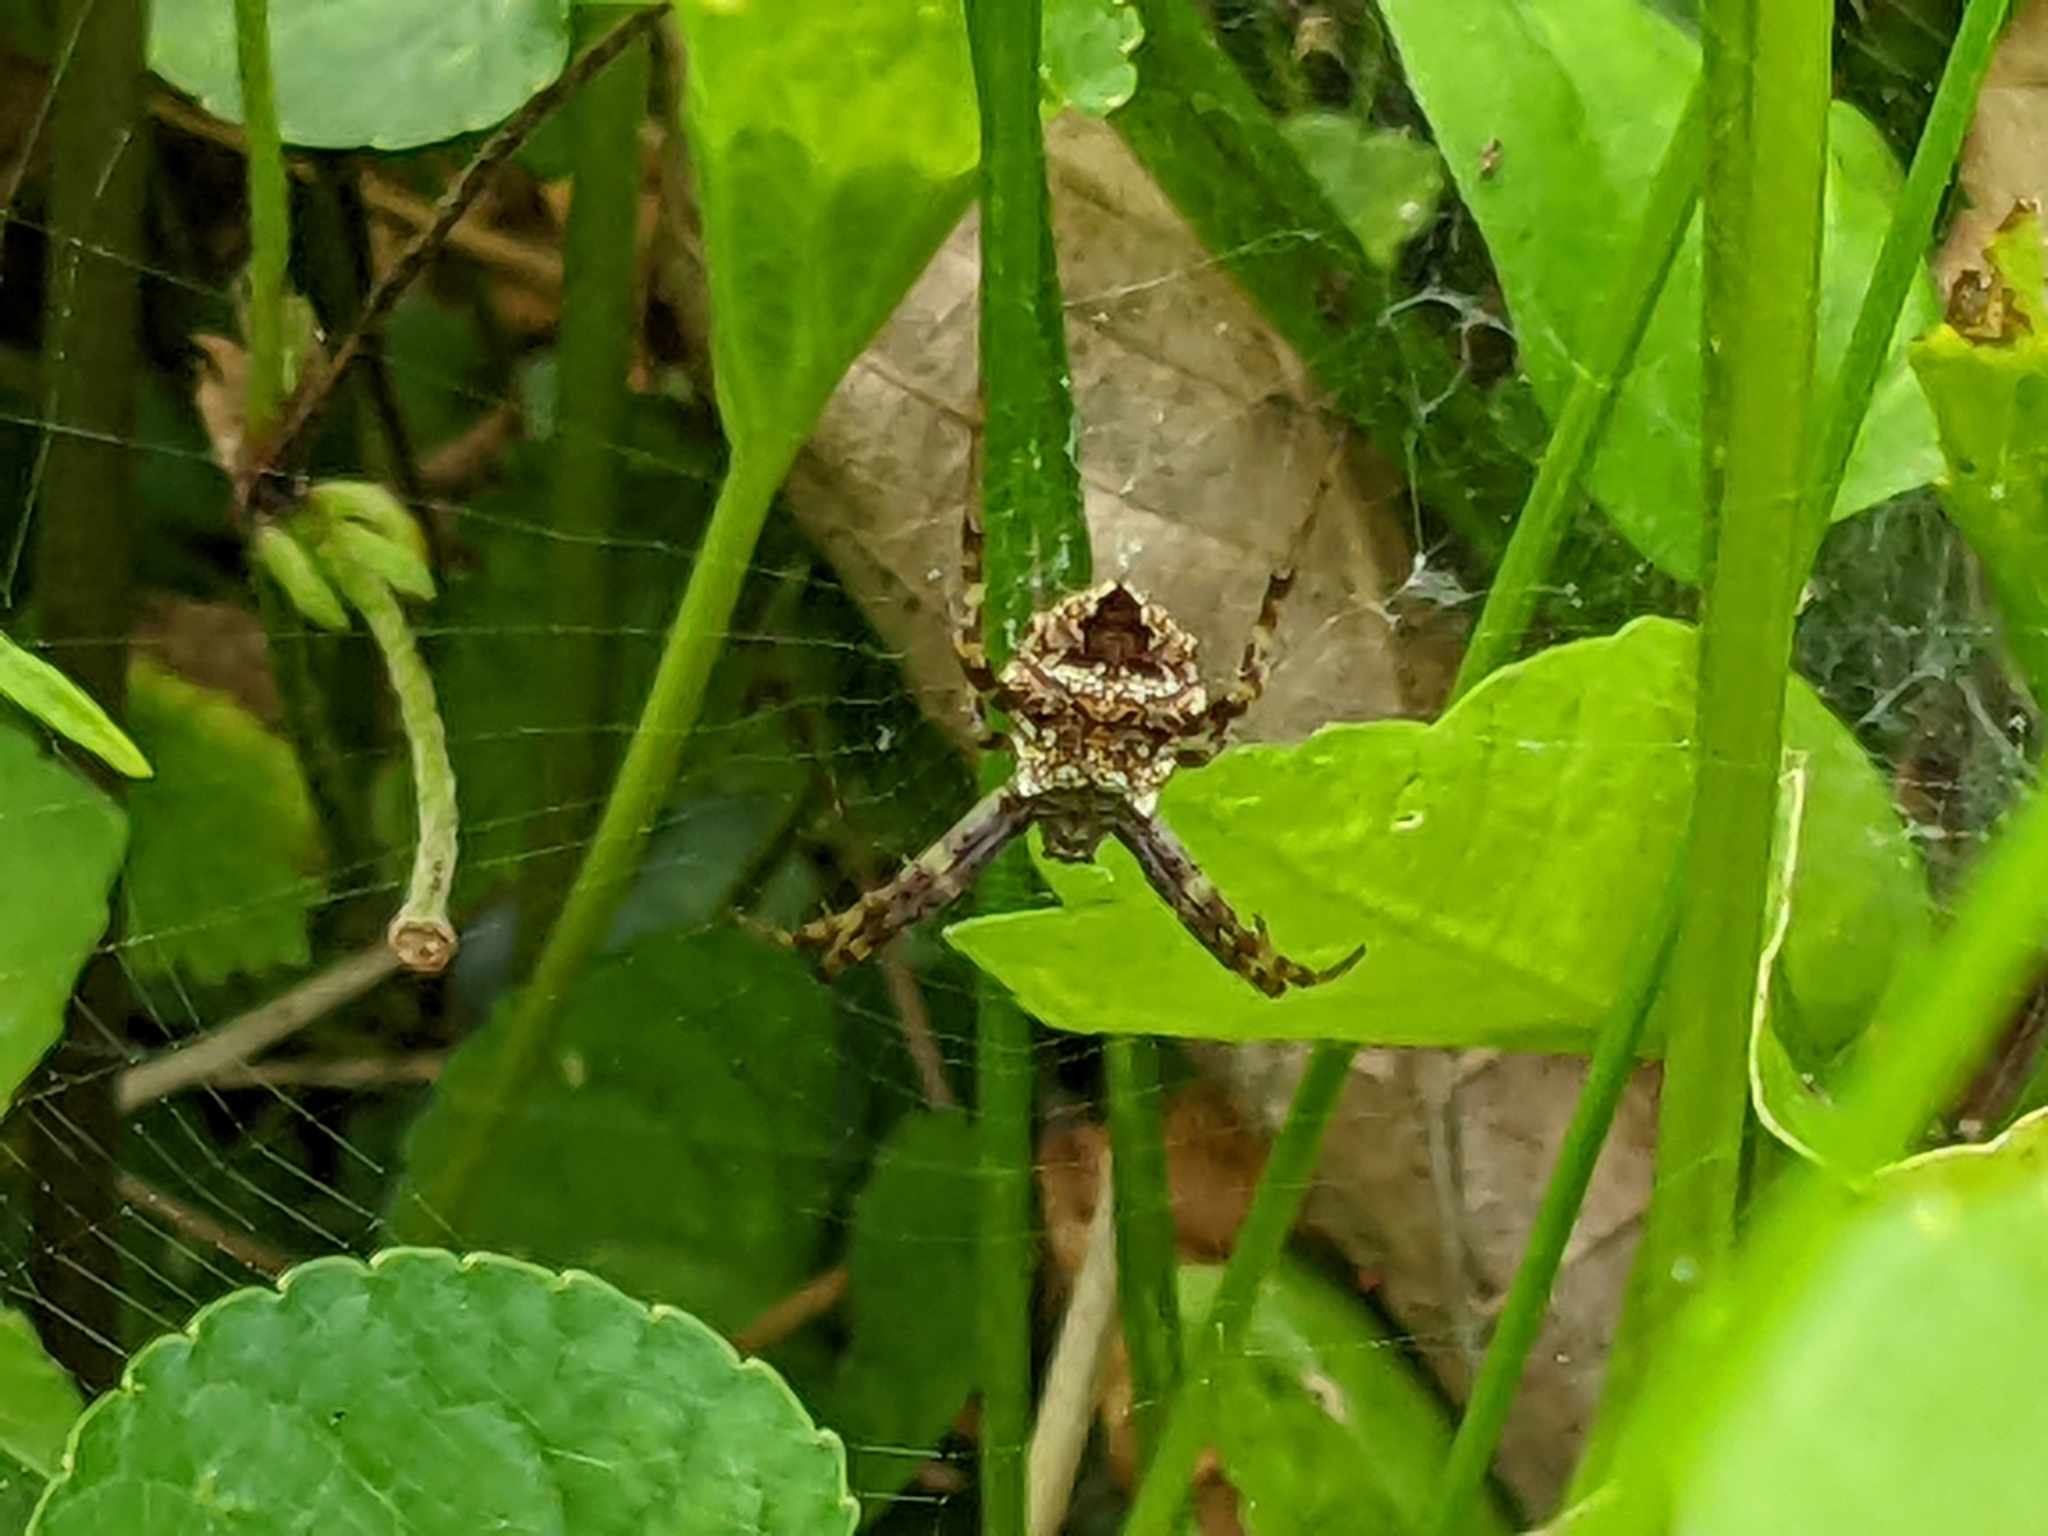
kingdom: Animalia
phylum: Arthropoda
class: Arachnida
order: Araneae
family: Araneidae
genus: Gea
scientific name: Gea heptagon
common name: Orb weavers
